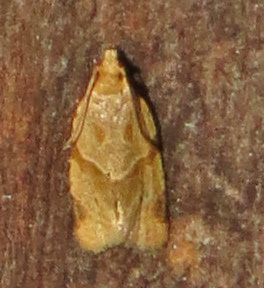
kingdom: Animalia
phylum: Arthropoda
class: Insecta
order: Lepidoptera
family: Tortricidae
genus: Clepsis
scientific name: Clepsis peritana
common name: Garden tortrix
